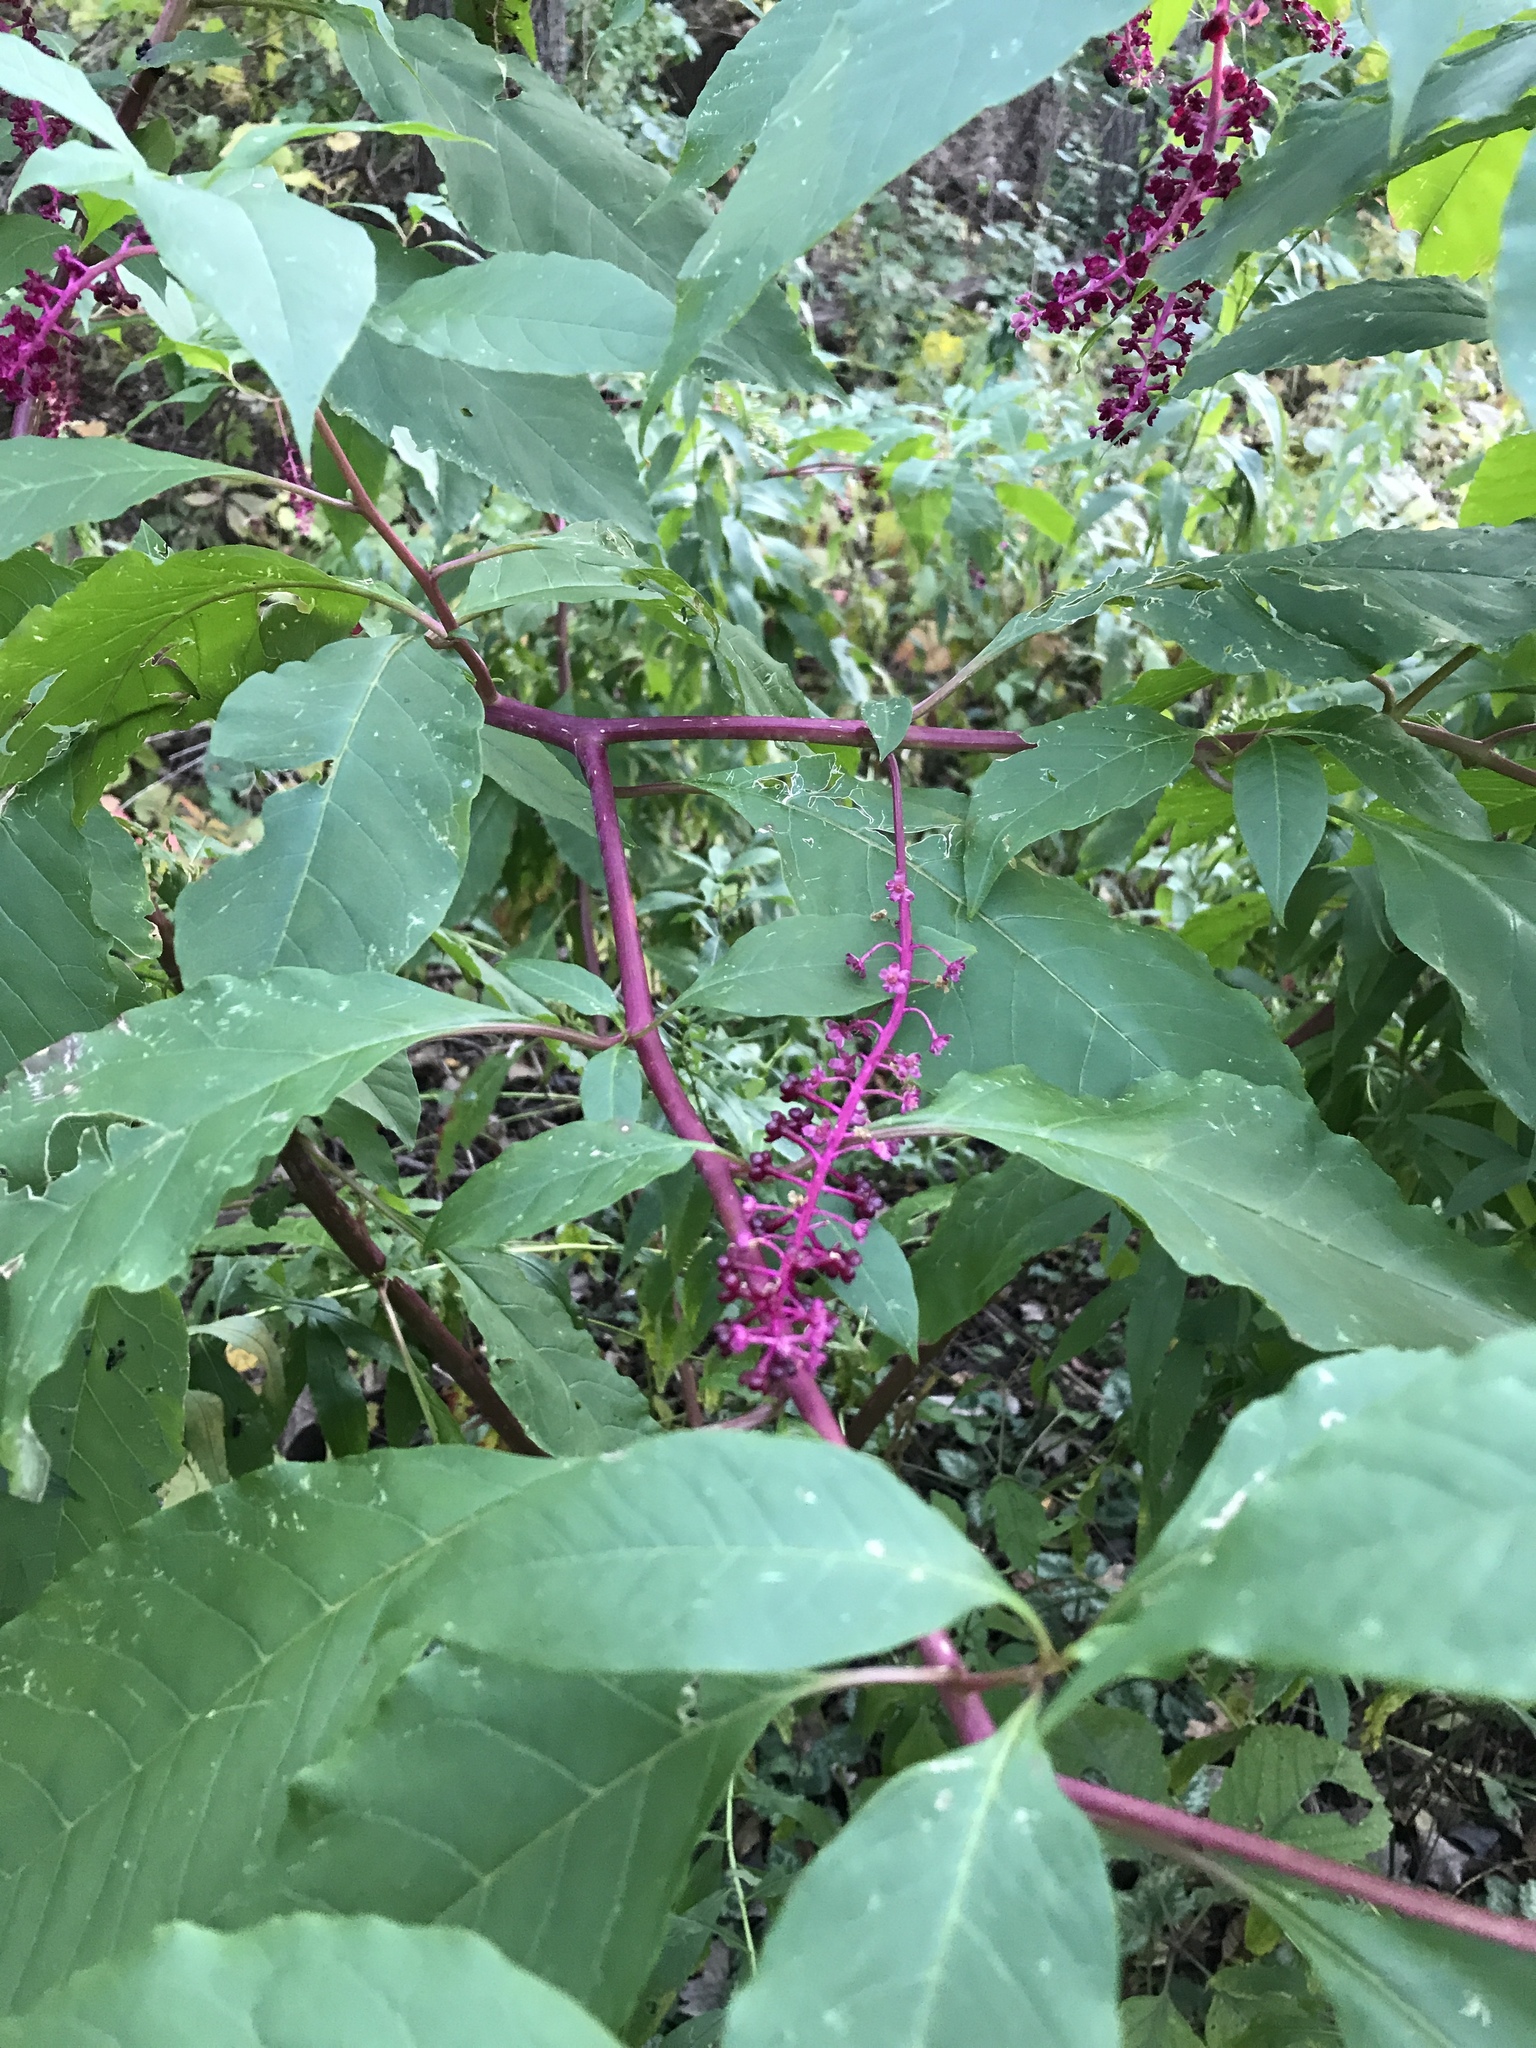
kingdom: Plantae
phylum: Tracheophyta
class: Magnoliopsida
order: Caryophyllales
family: Phytolaccaceae
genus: Phytolacca
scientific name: Phytolacca americana
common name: American pokeweed
